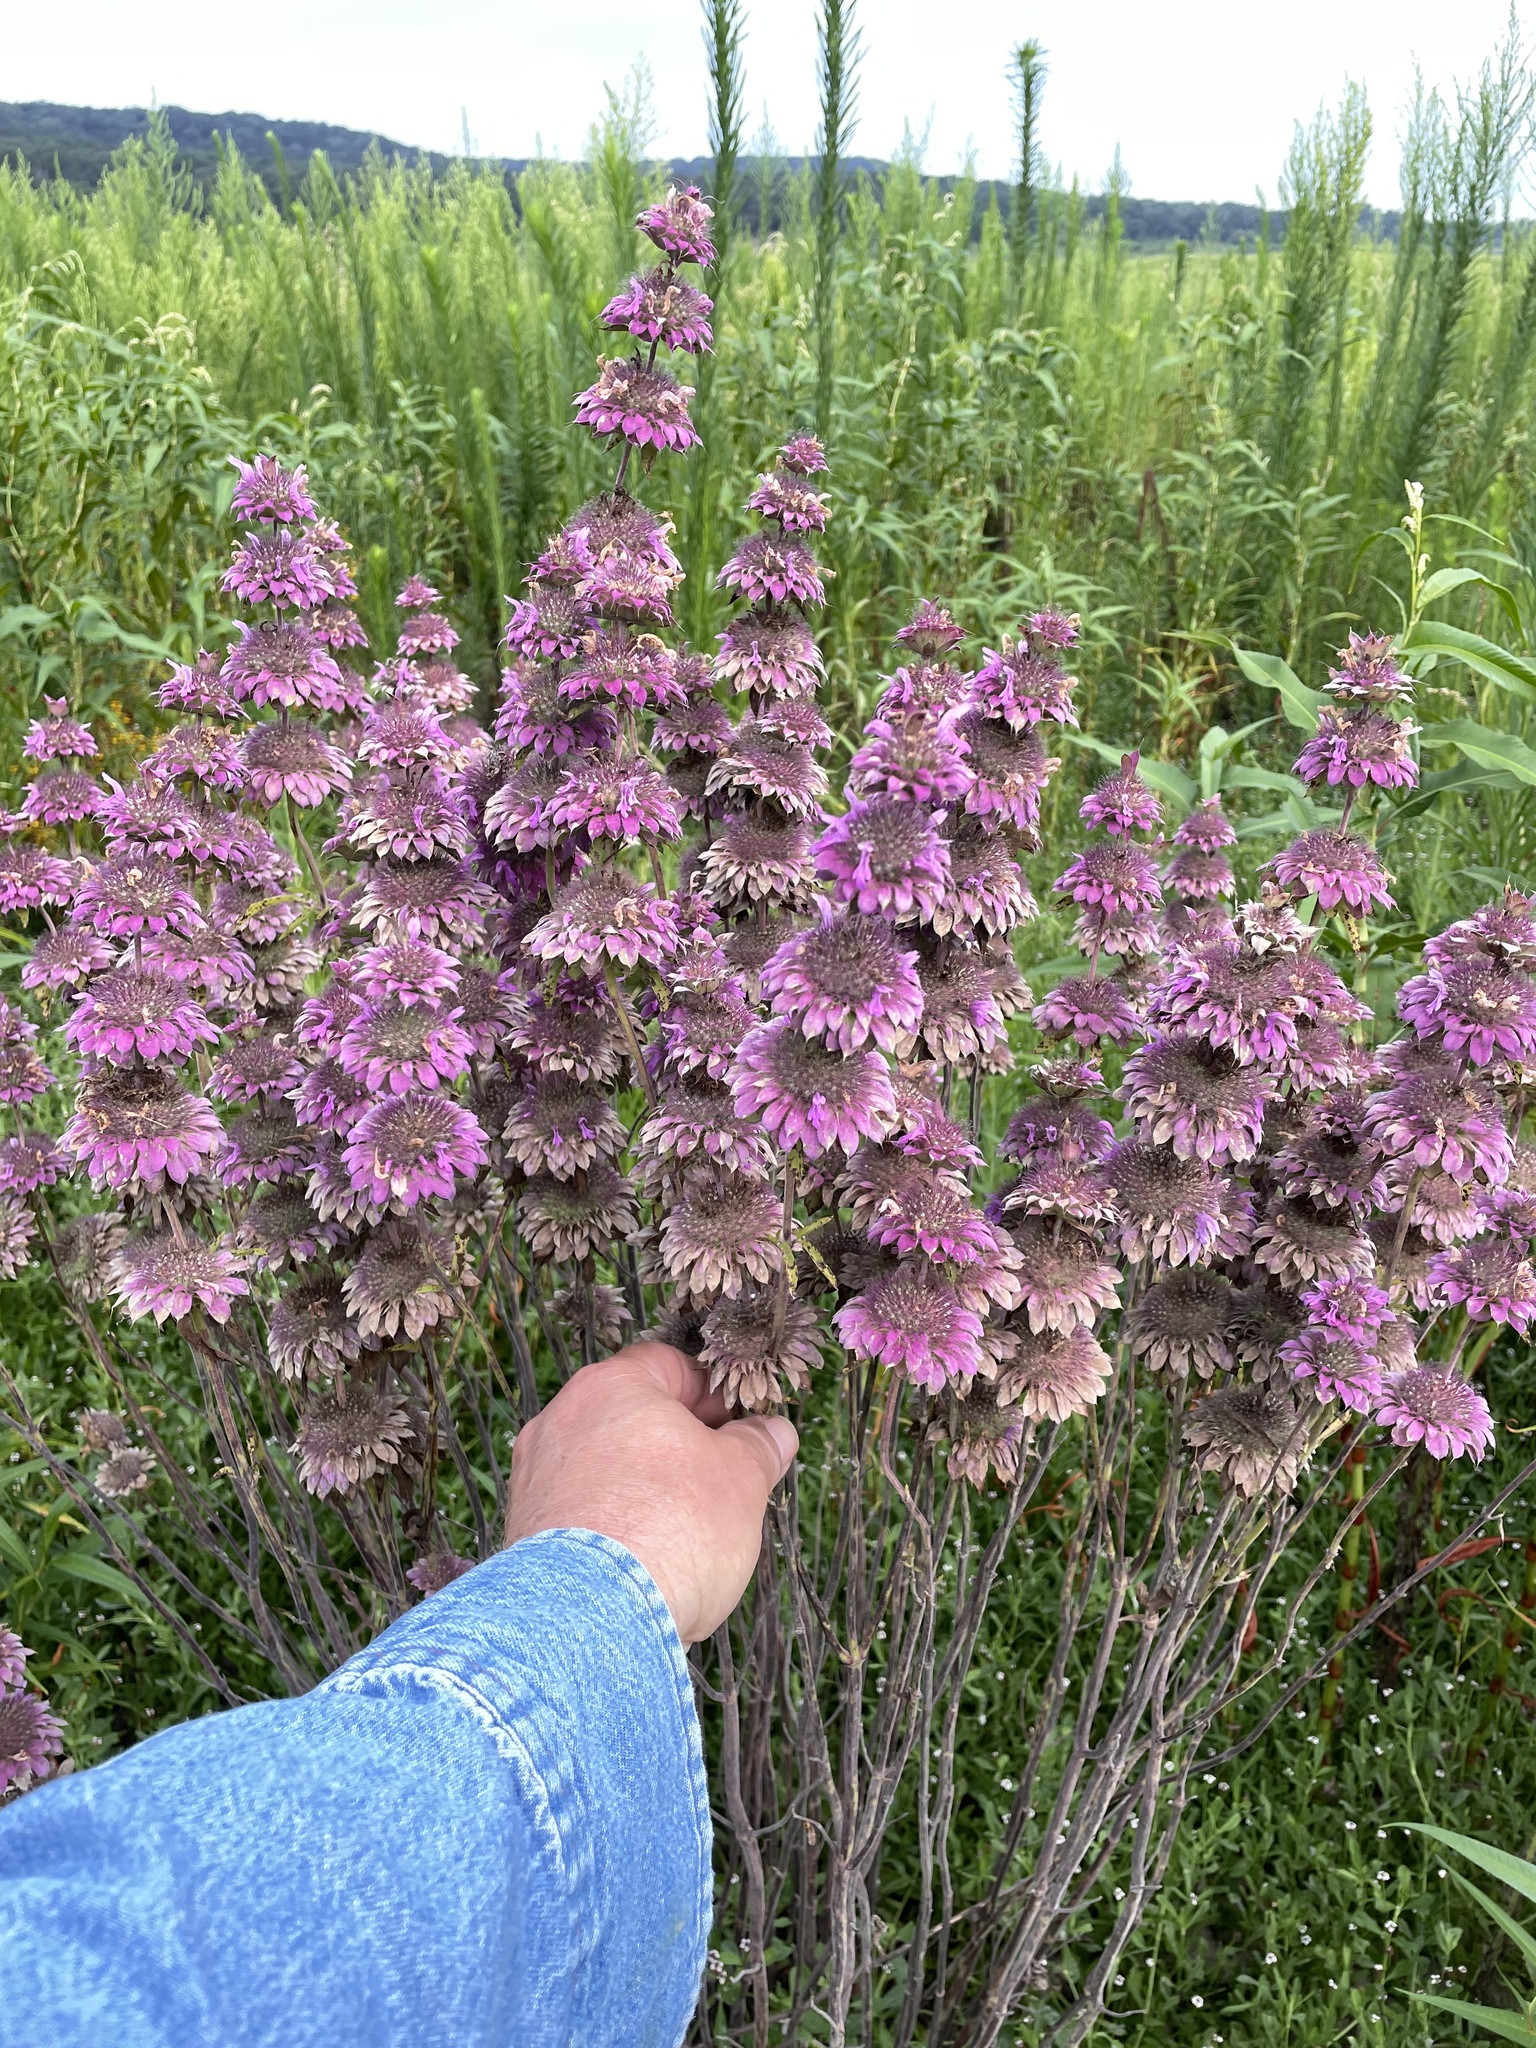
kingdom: Plantae
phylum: Tracheophyta
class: Magnoliopsida
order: Lamiales
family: Lamiaceae
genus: Monarda
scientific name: Monarda citriodora
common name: Lemon beebalm
